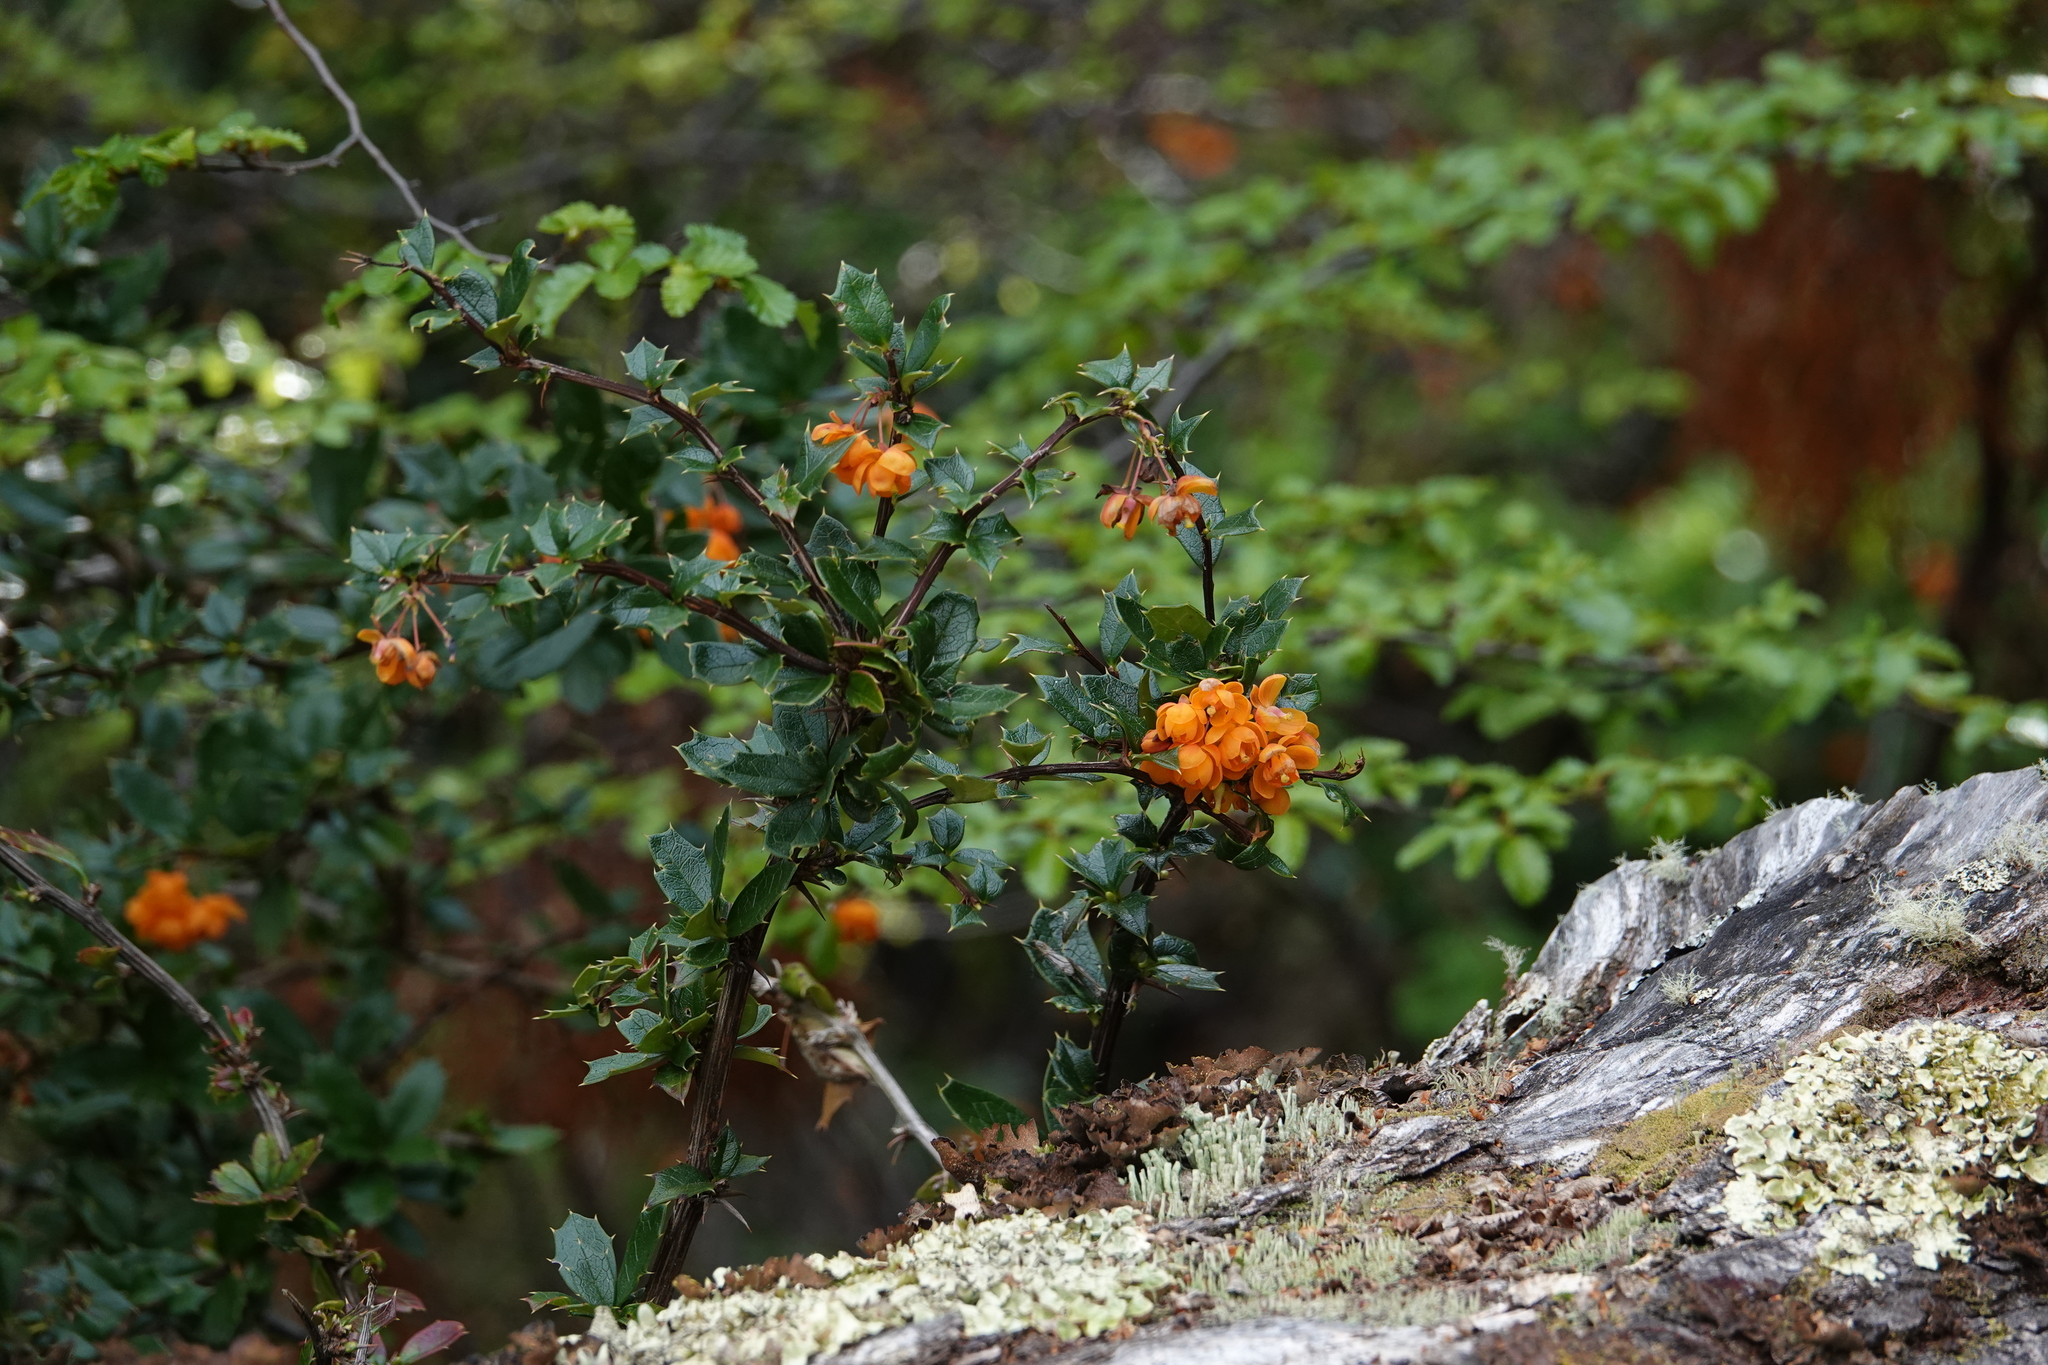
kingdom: Plantae
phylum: Tracheophyta
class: Magnoliopsida
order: Ranunculales
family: Berberidaceae
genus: Berberis
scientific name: Berberis ilicifolia
